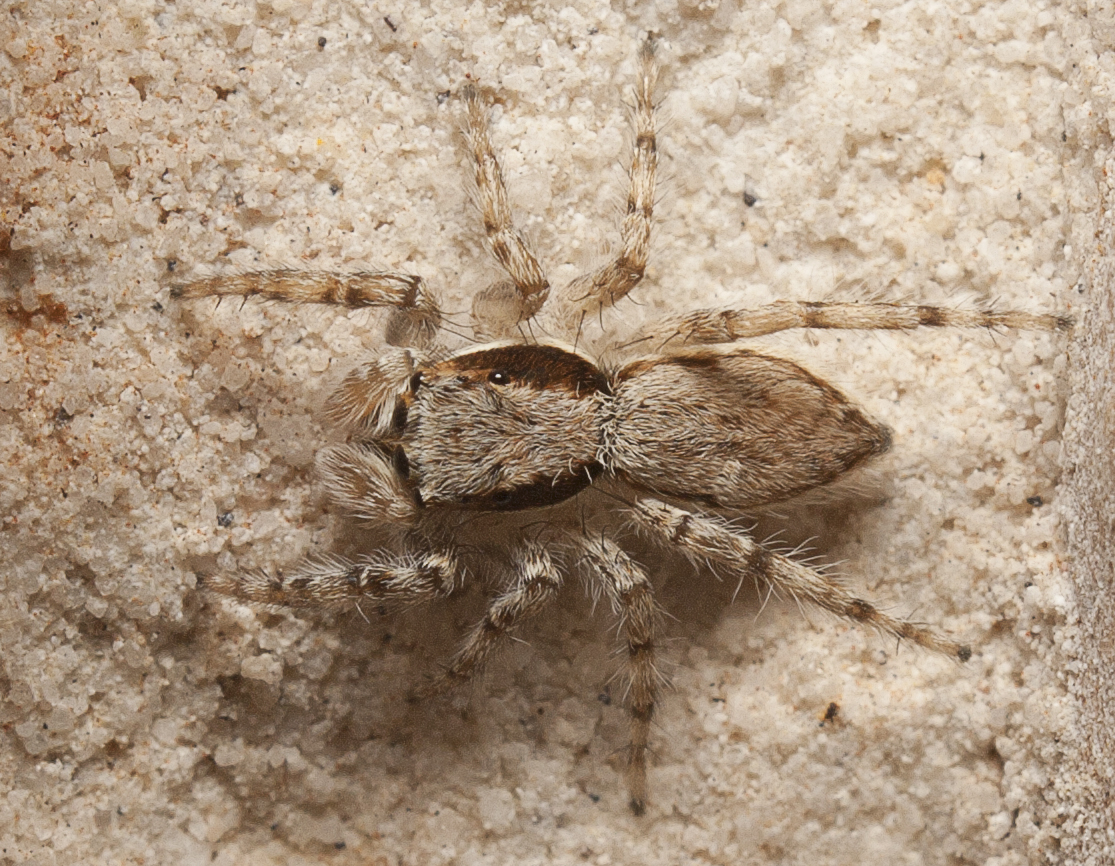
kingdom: Animalia
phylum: Arthropoda
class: Arachnida
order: Araneae
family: Salticidae
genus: Menemerus
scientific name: Menemerus bivittatus
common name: Gray wall jumper
